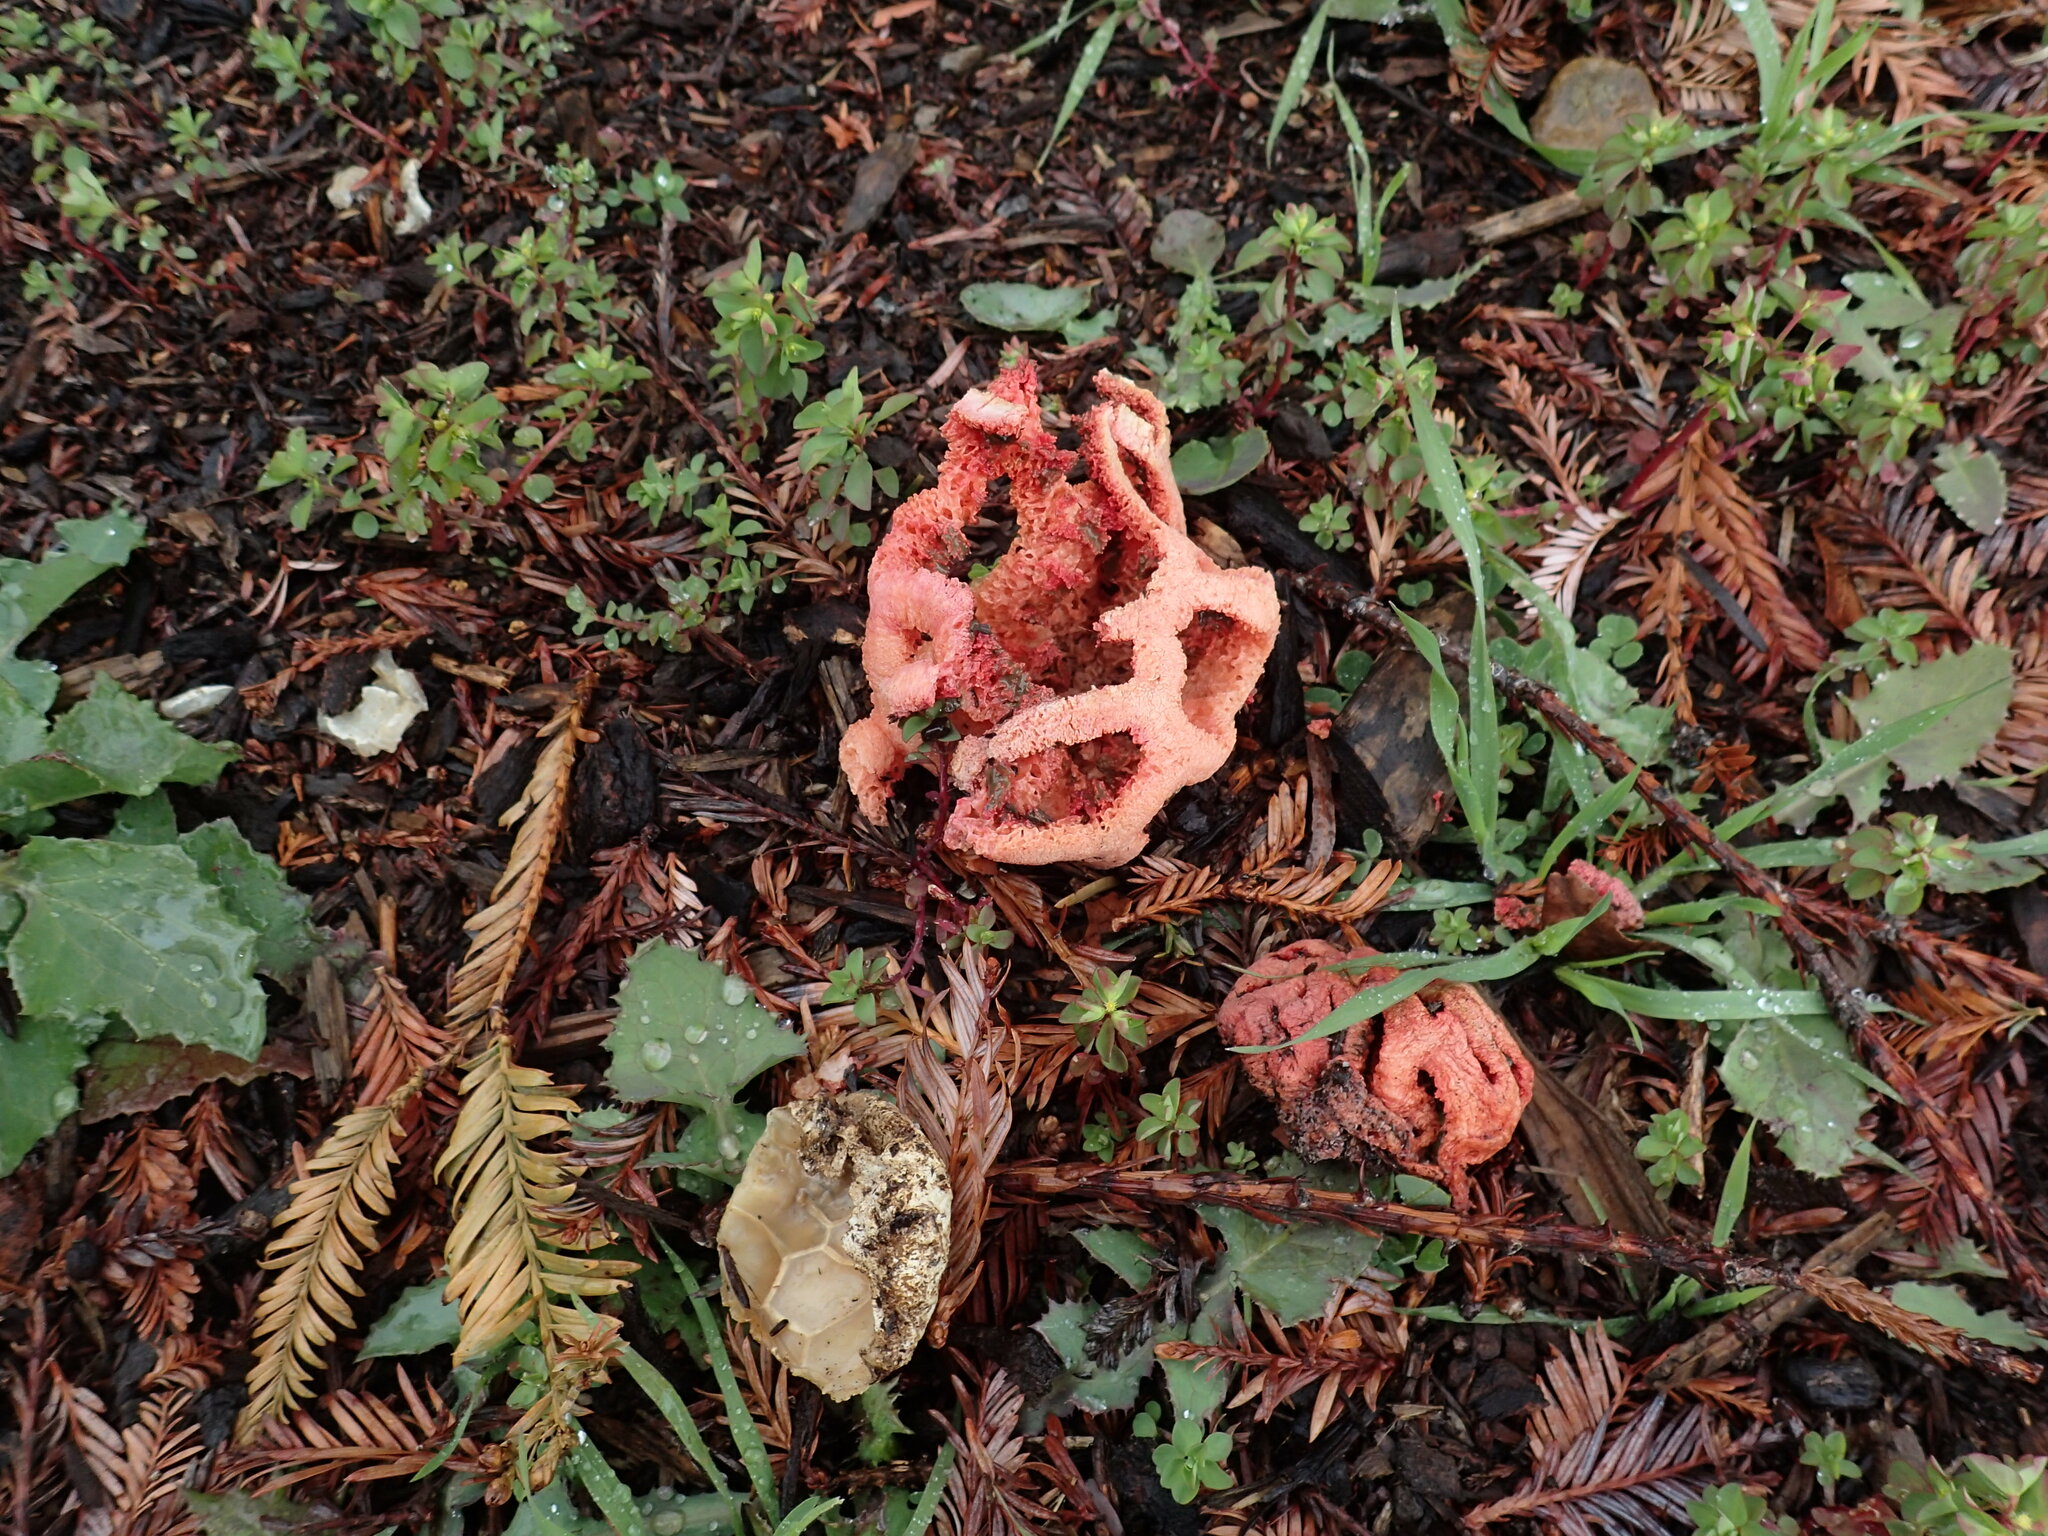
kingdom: Fungi
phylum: Basidiomycota
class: Agaricomycetes
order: Phallales
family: Phallaceae
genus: Clathrus
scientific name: Clathrus ruber
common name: Red cage
